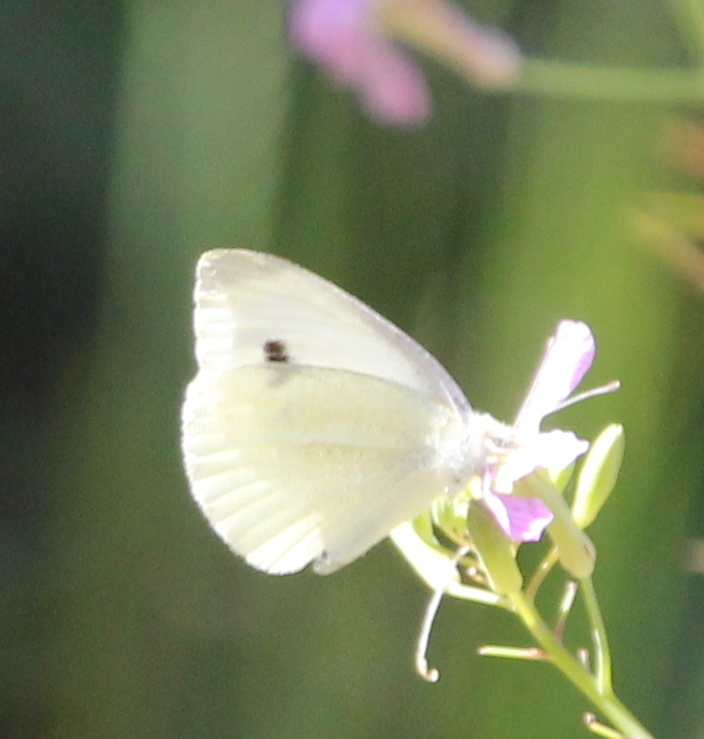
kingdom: Animalia
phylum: Arthropoda
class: Insecta
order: Lepidoptera
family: Pieridae
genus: Pieris
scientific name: Pieris rapae
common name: Small white
